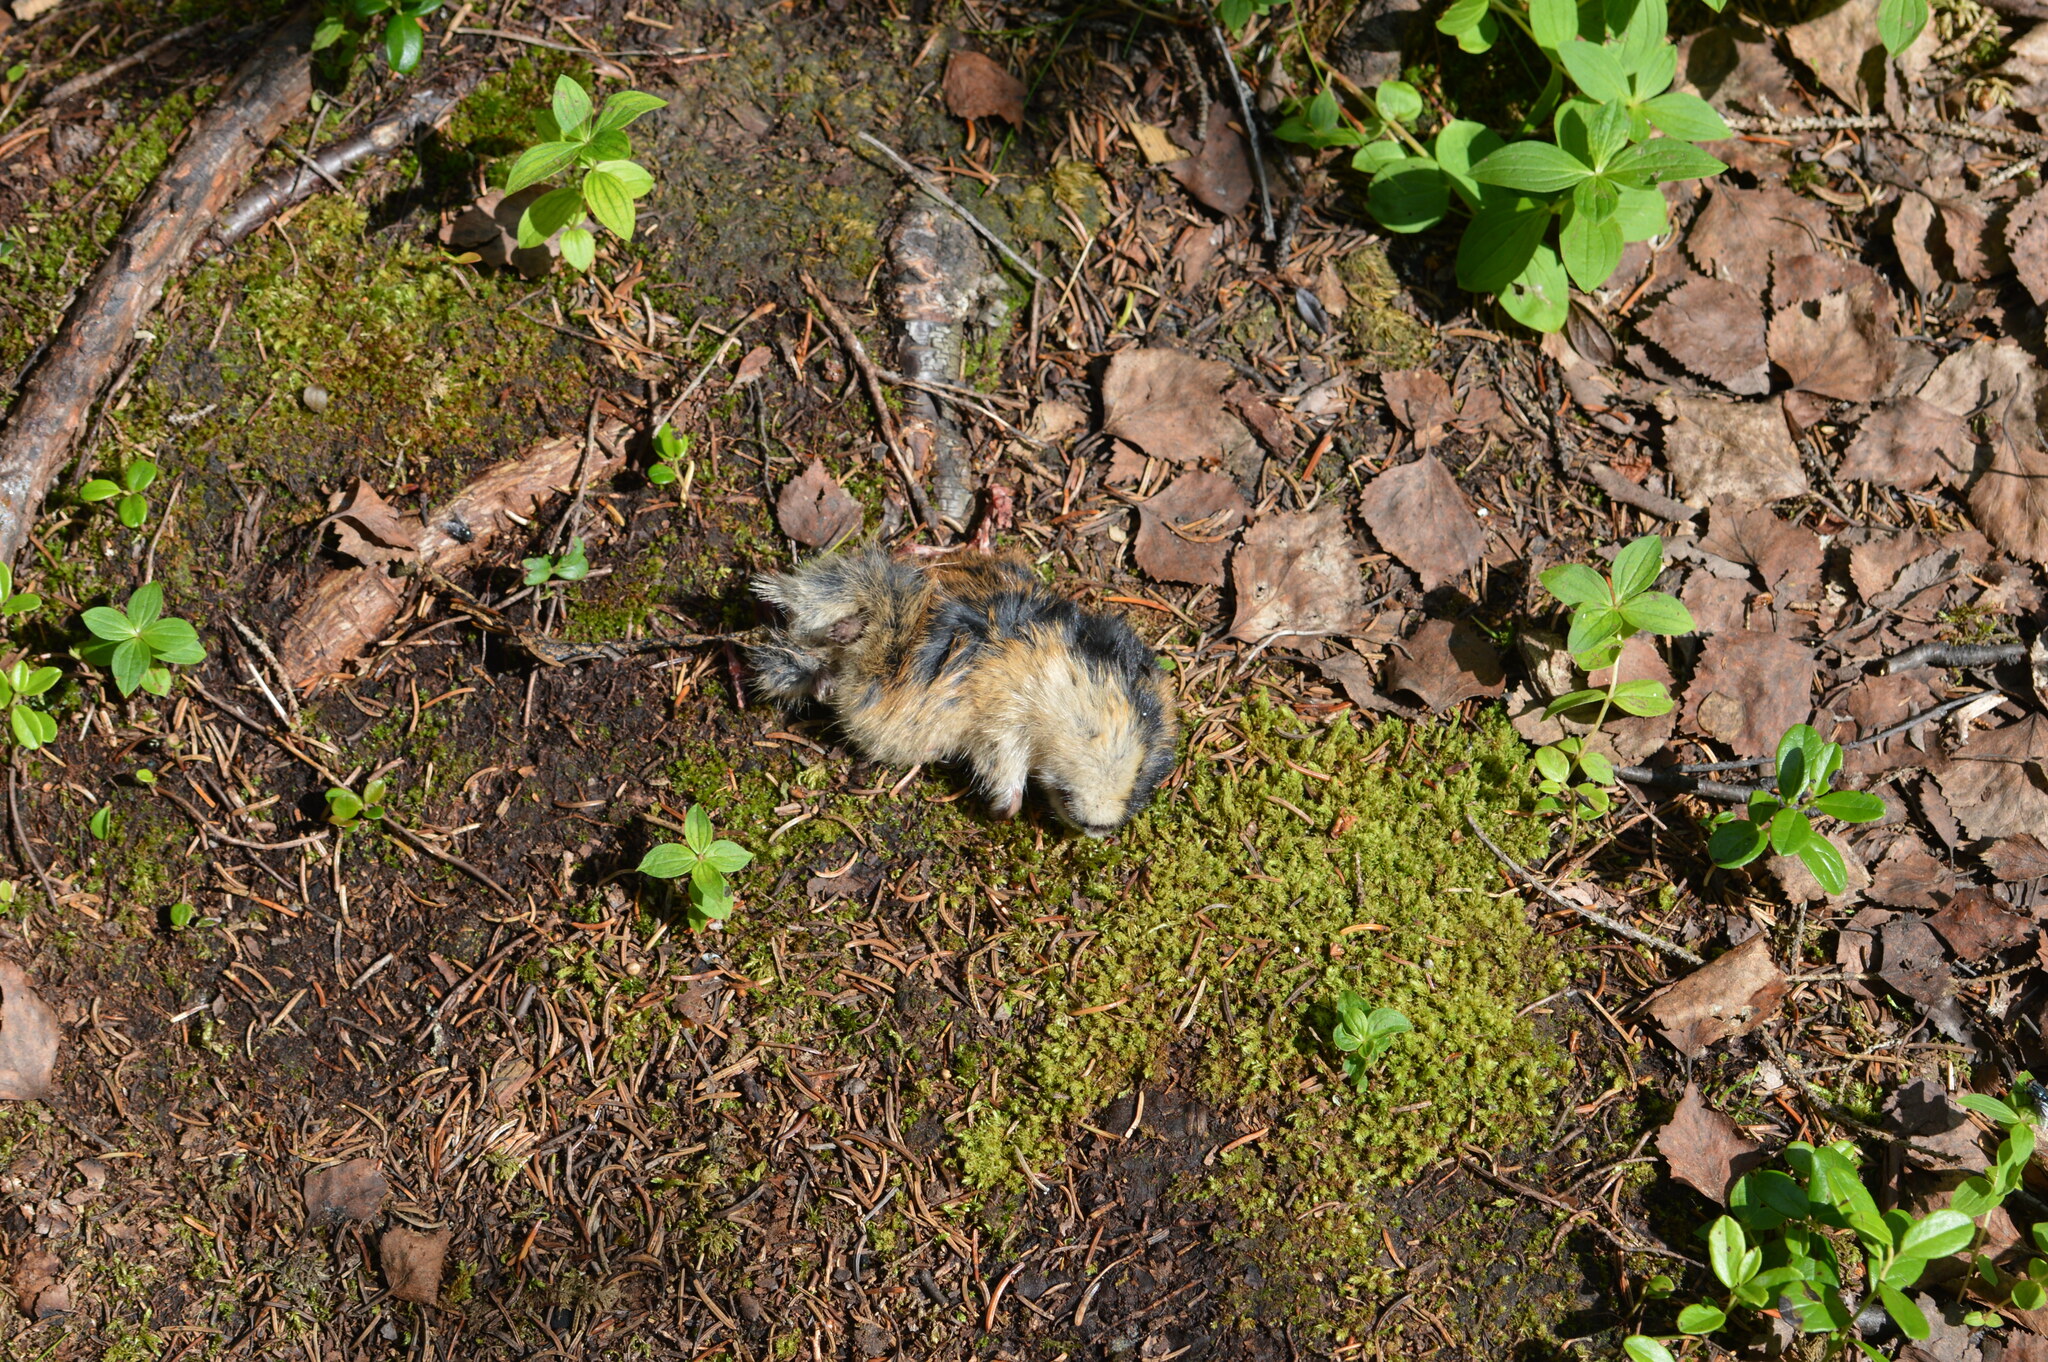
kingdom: Animalia
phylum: Chordata
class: Mammalia
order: Rodentia
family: Cricetidae
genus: Lemmus
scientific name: Lemmus lemmus
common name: Norway lemming
